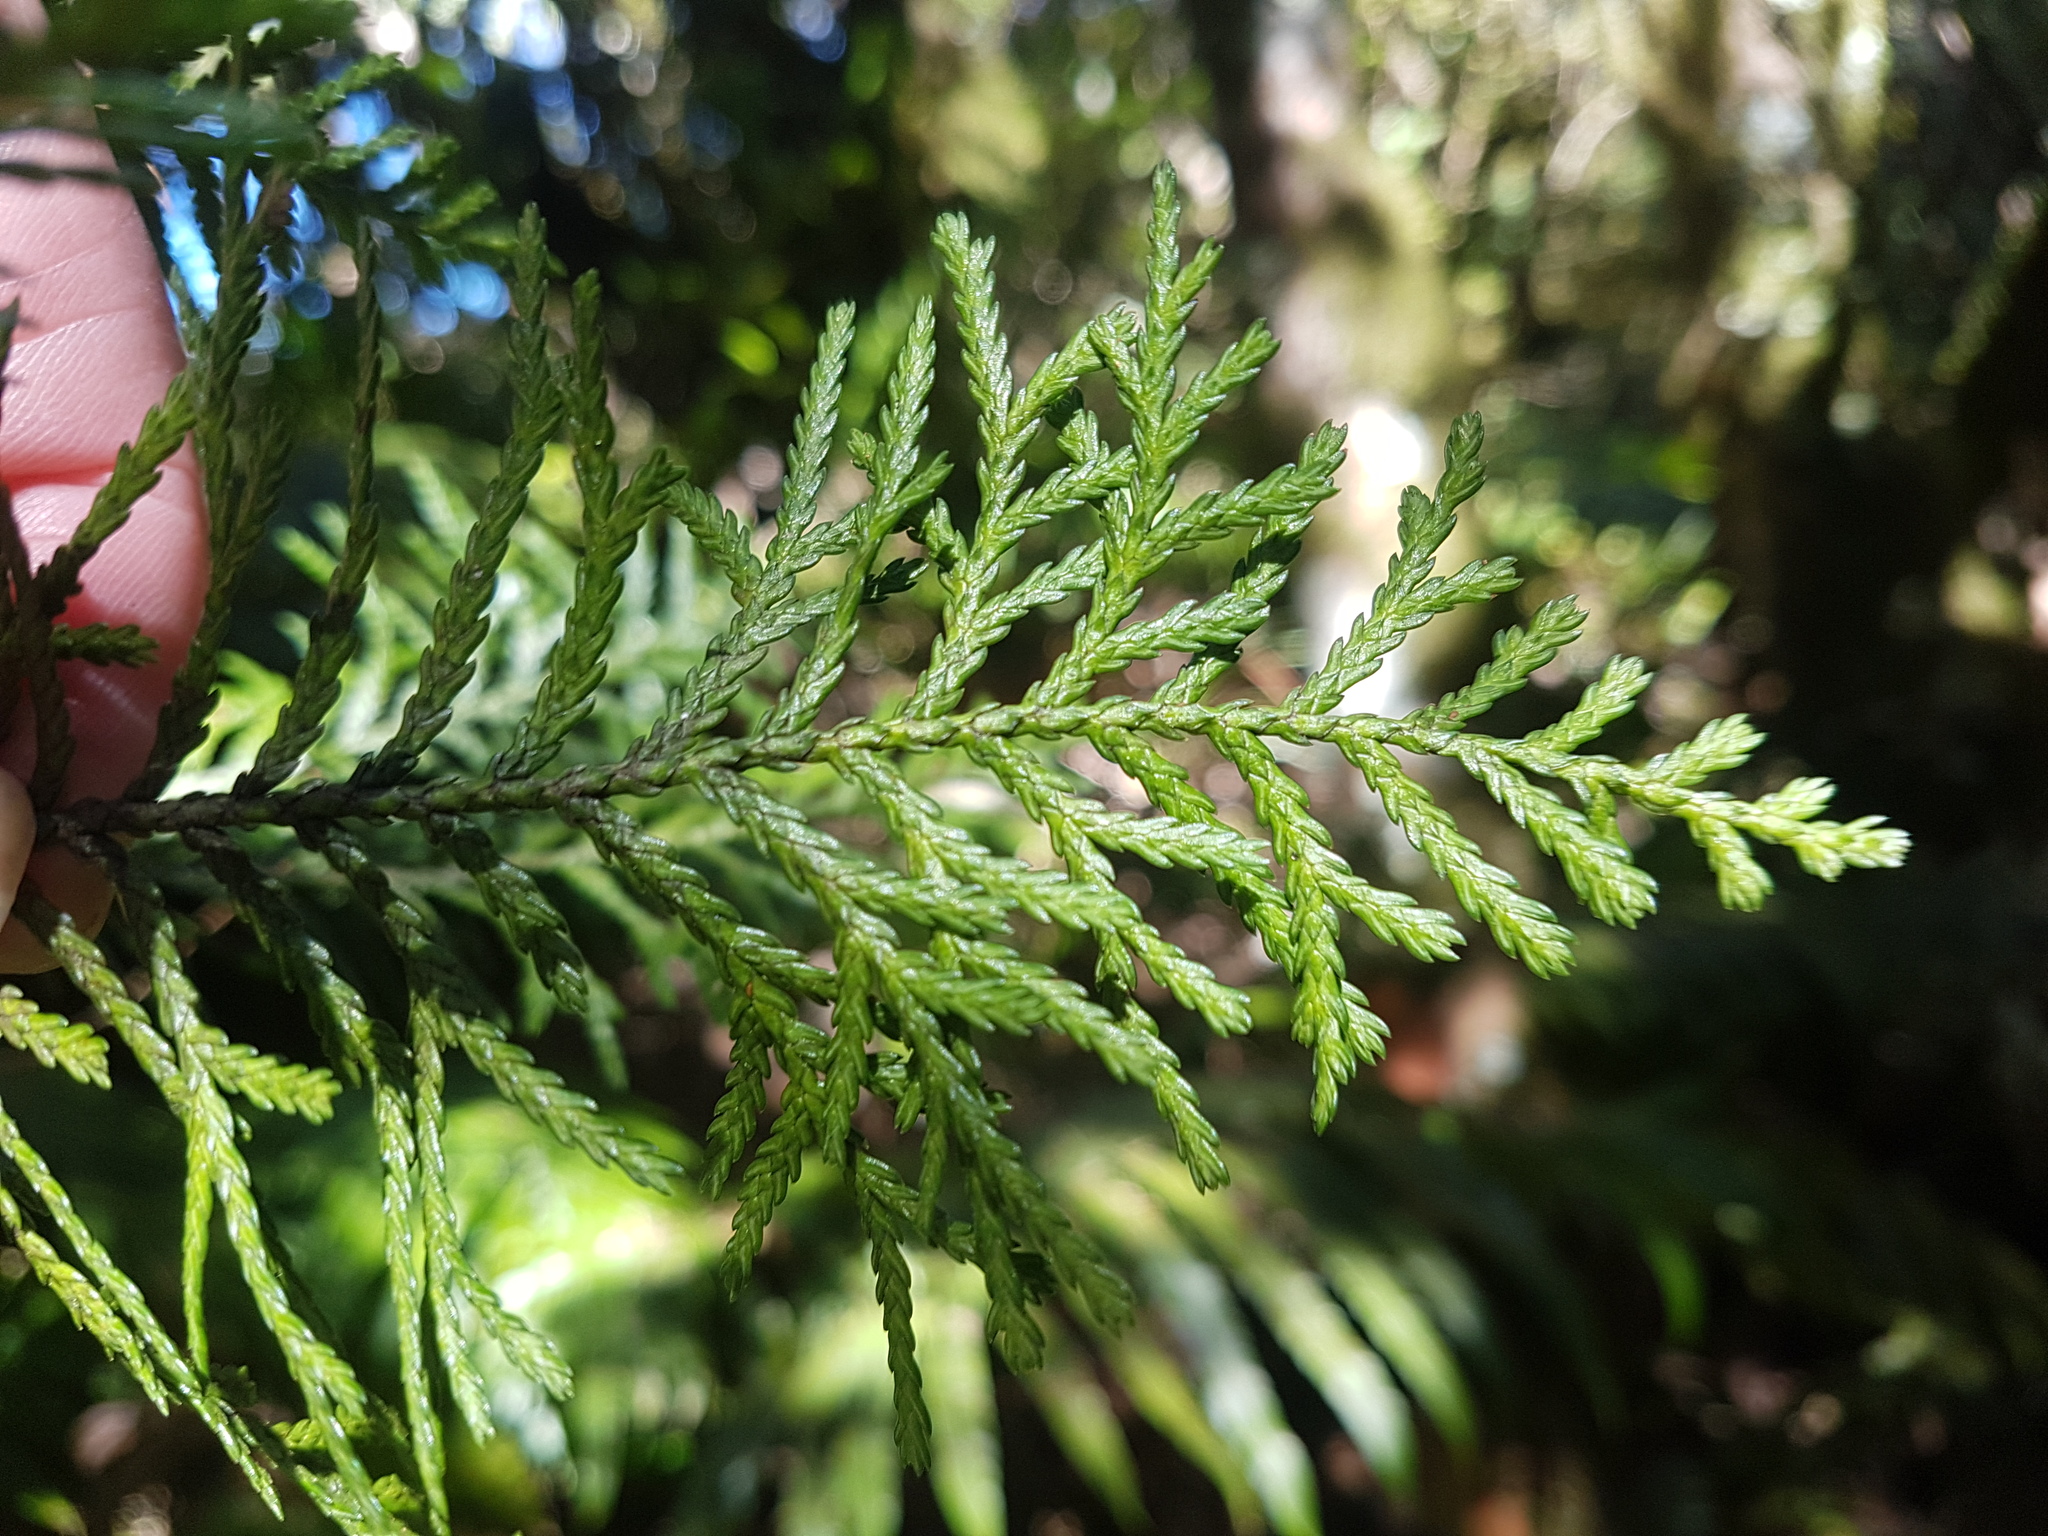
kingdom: Plantae
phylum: Tracheophyta
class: Pinopsida
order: Pinales
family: Cupressaceae
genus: Libocedrus
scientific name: Libocedrus bidwillii
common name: Cedar
